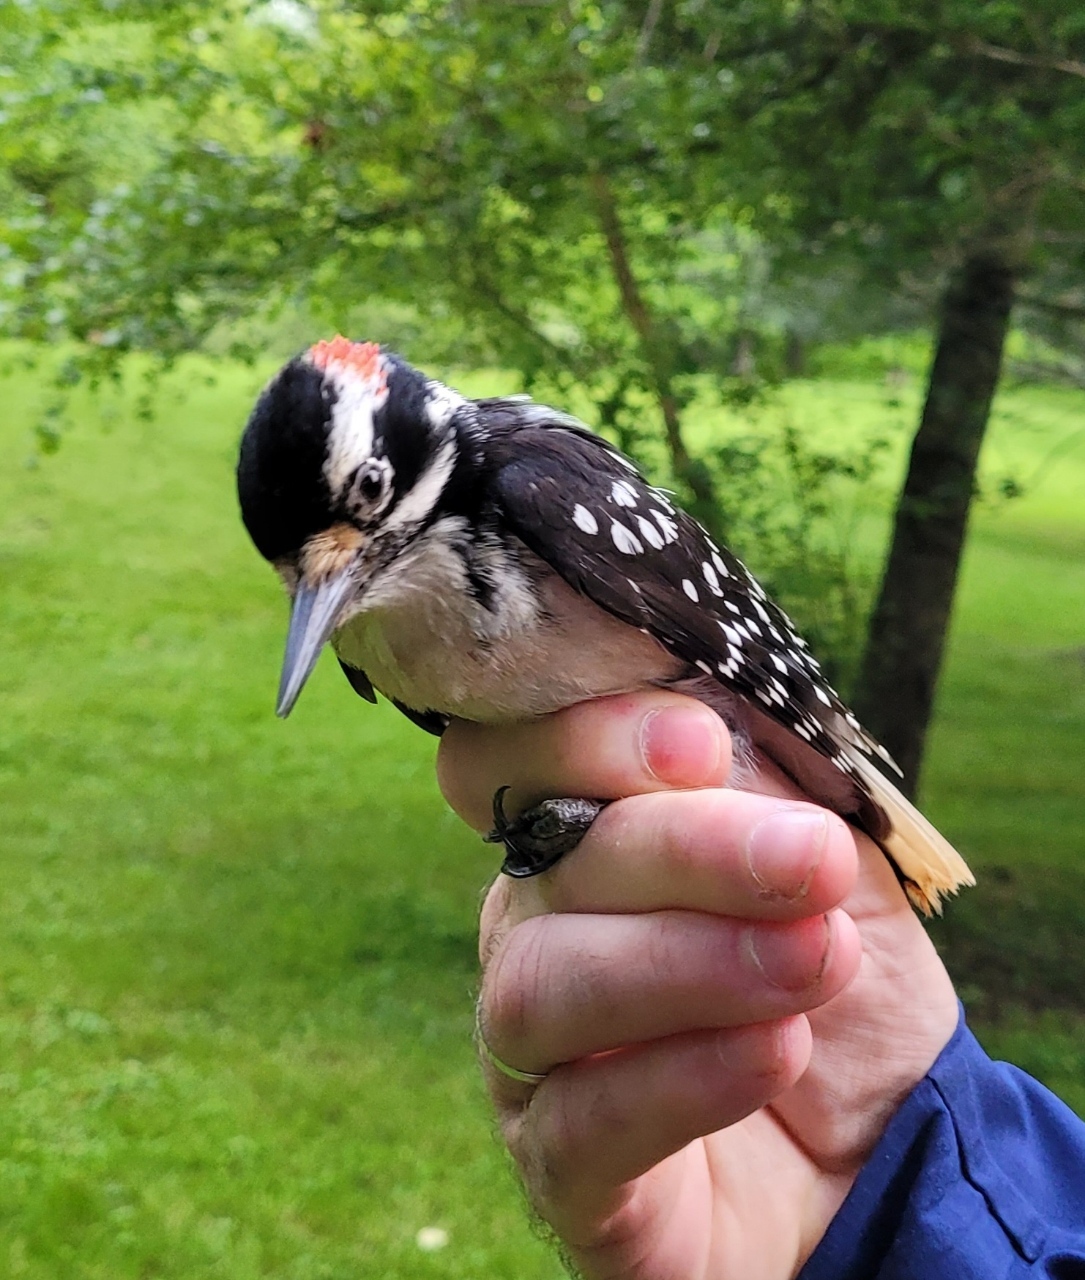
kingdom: Animalia
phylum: Chordata
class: Aves
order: Piciformes
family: Picidae
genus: Leuconotopicus
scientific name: Leuconotopicus villosus
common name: Hairy woodpecker
